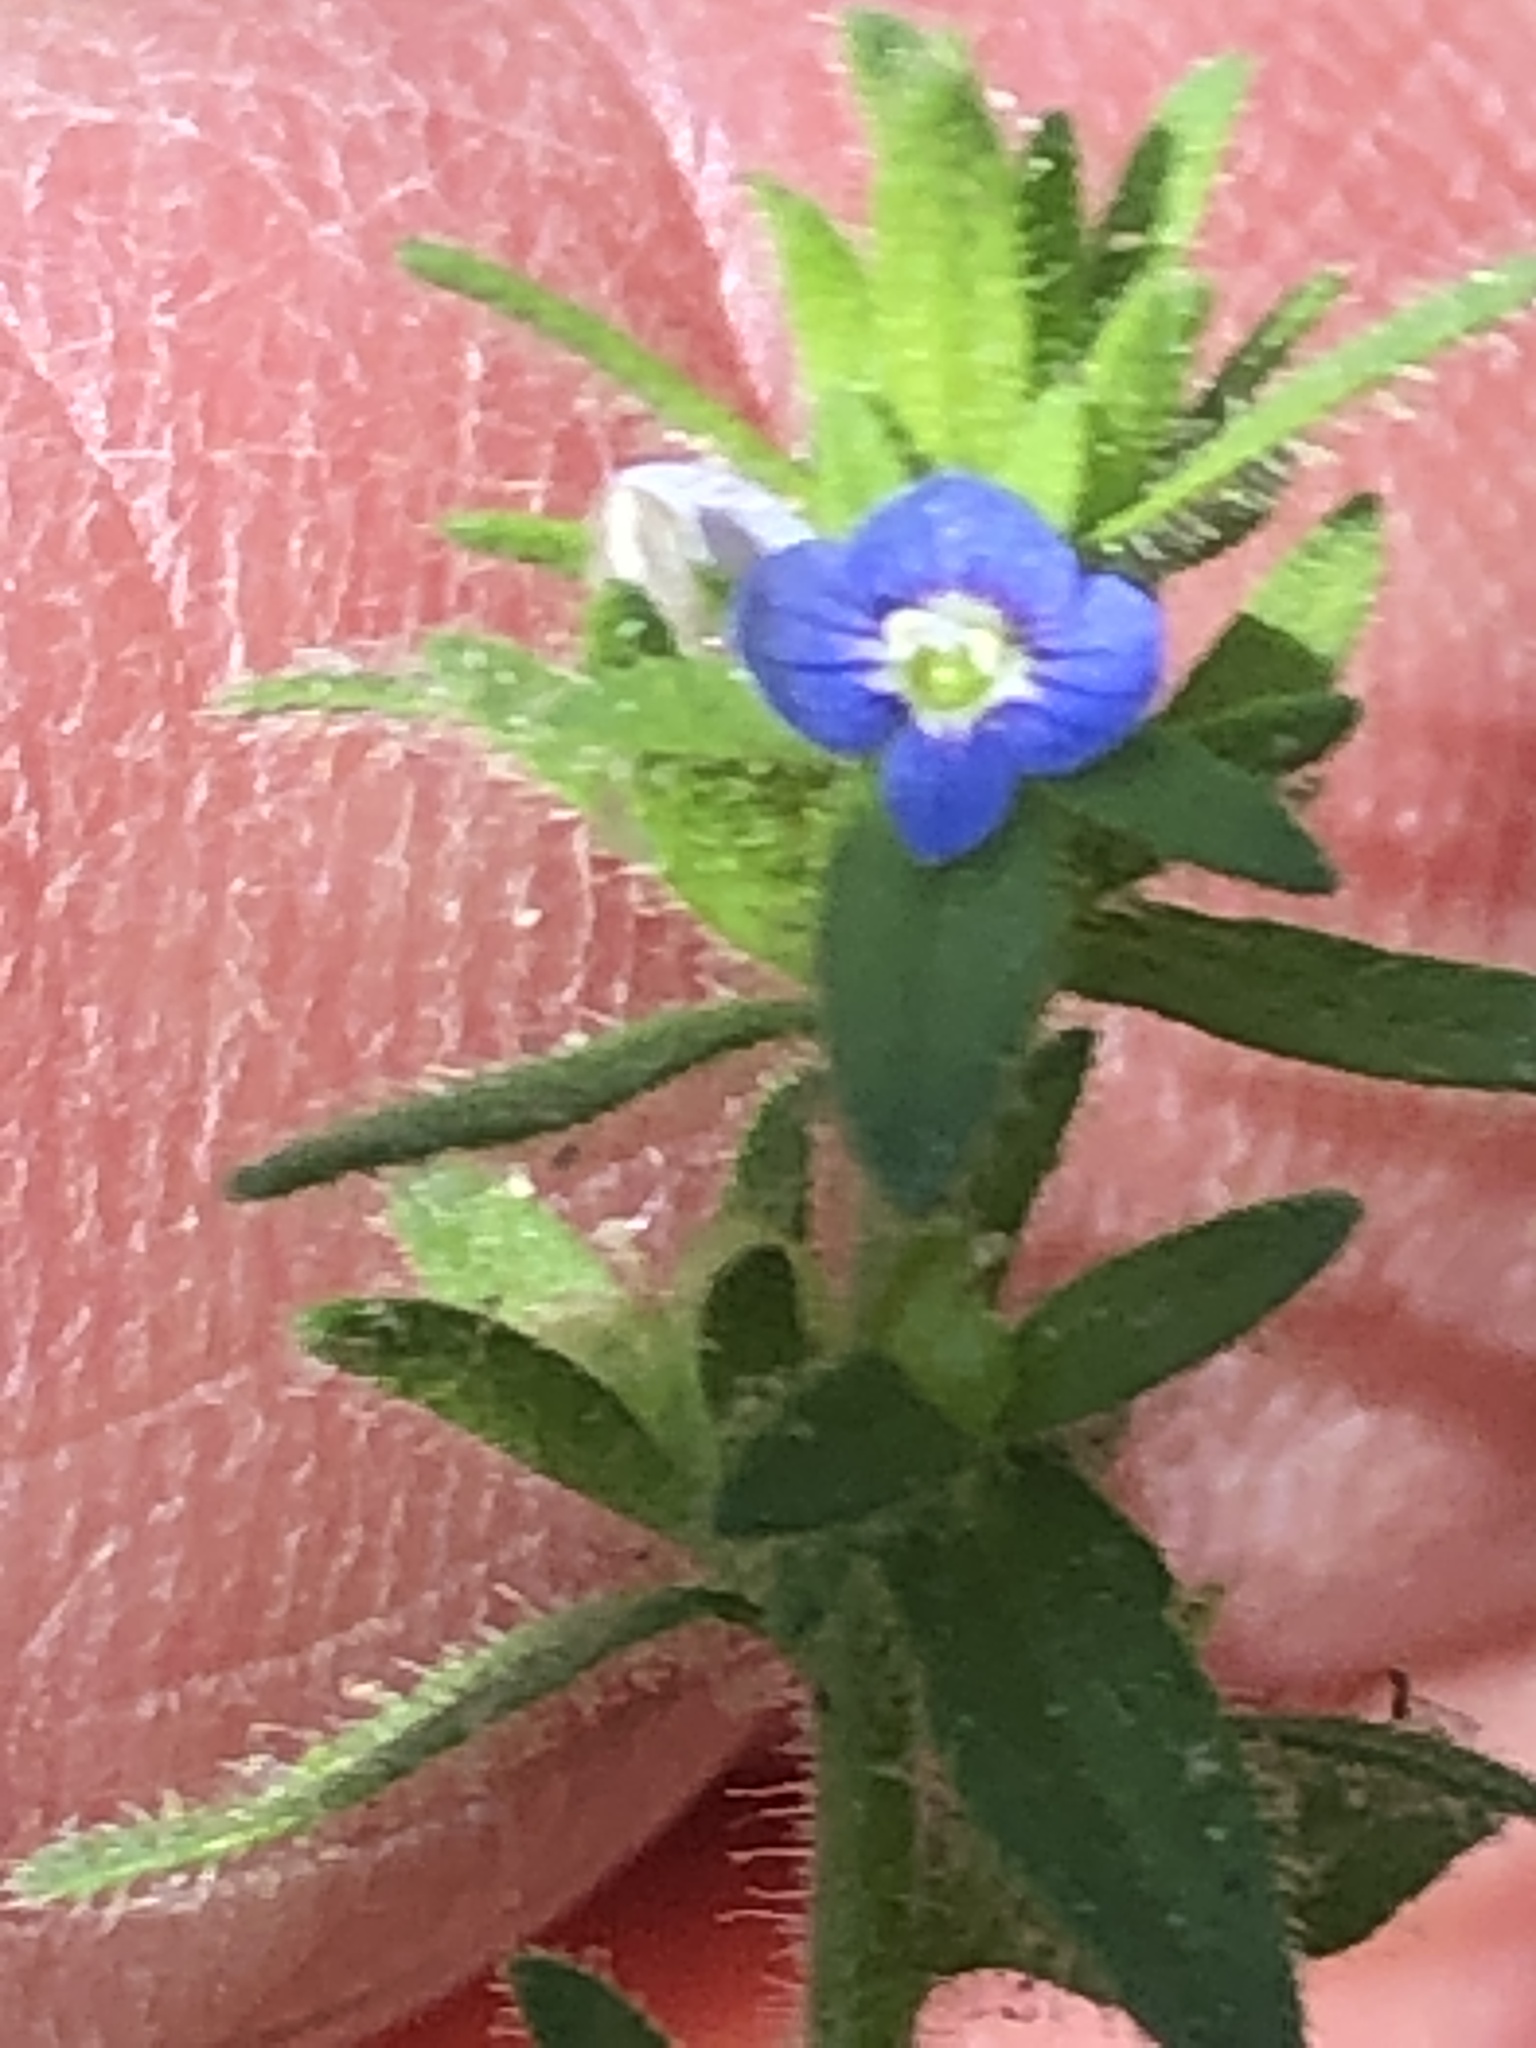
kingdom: Plantae
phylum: Tracheophyta
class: Magnoliopsida
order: Lamiales
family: Plantaginaceae
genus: Veronica
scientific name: Veronica arvensis
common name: Corn speedwell
